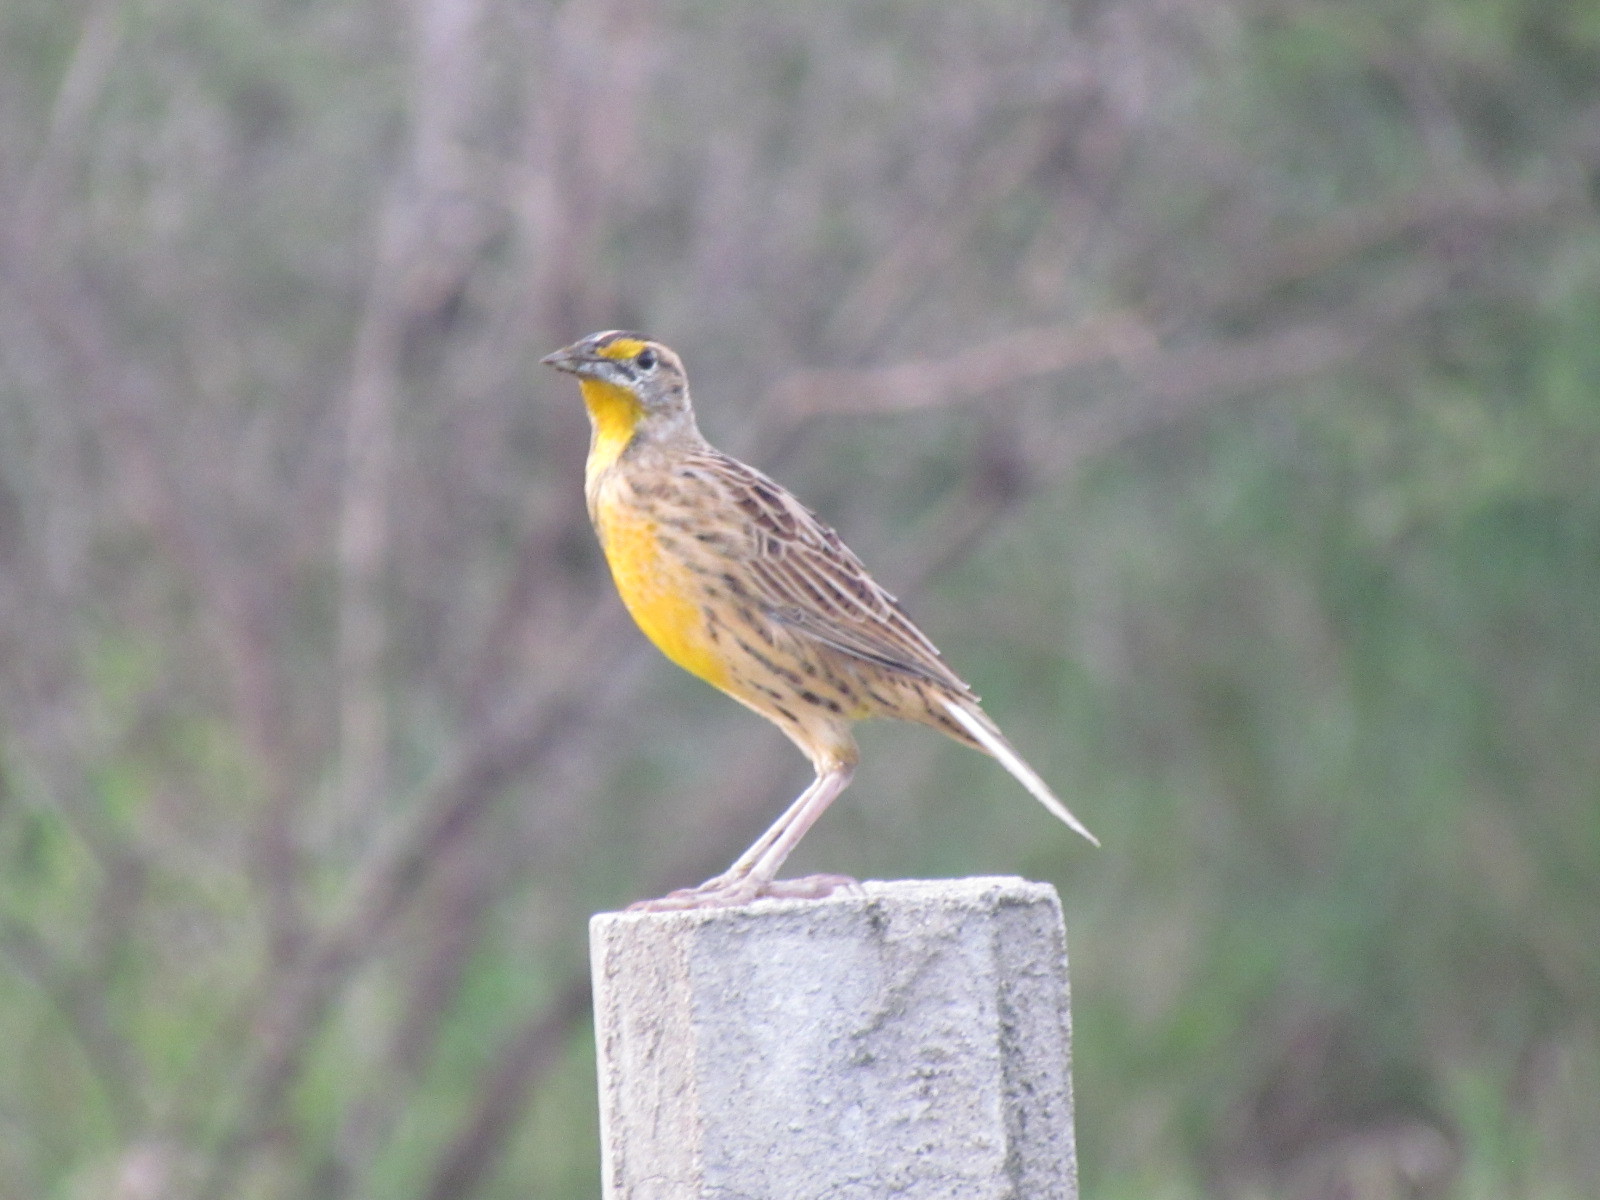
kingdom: Animalia
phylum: Chordata
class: Aves
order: Passeriformes
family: Icteridae
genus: Sturnella
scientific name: Sturnella magna
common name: Eastern meadowlark
